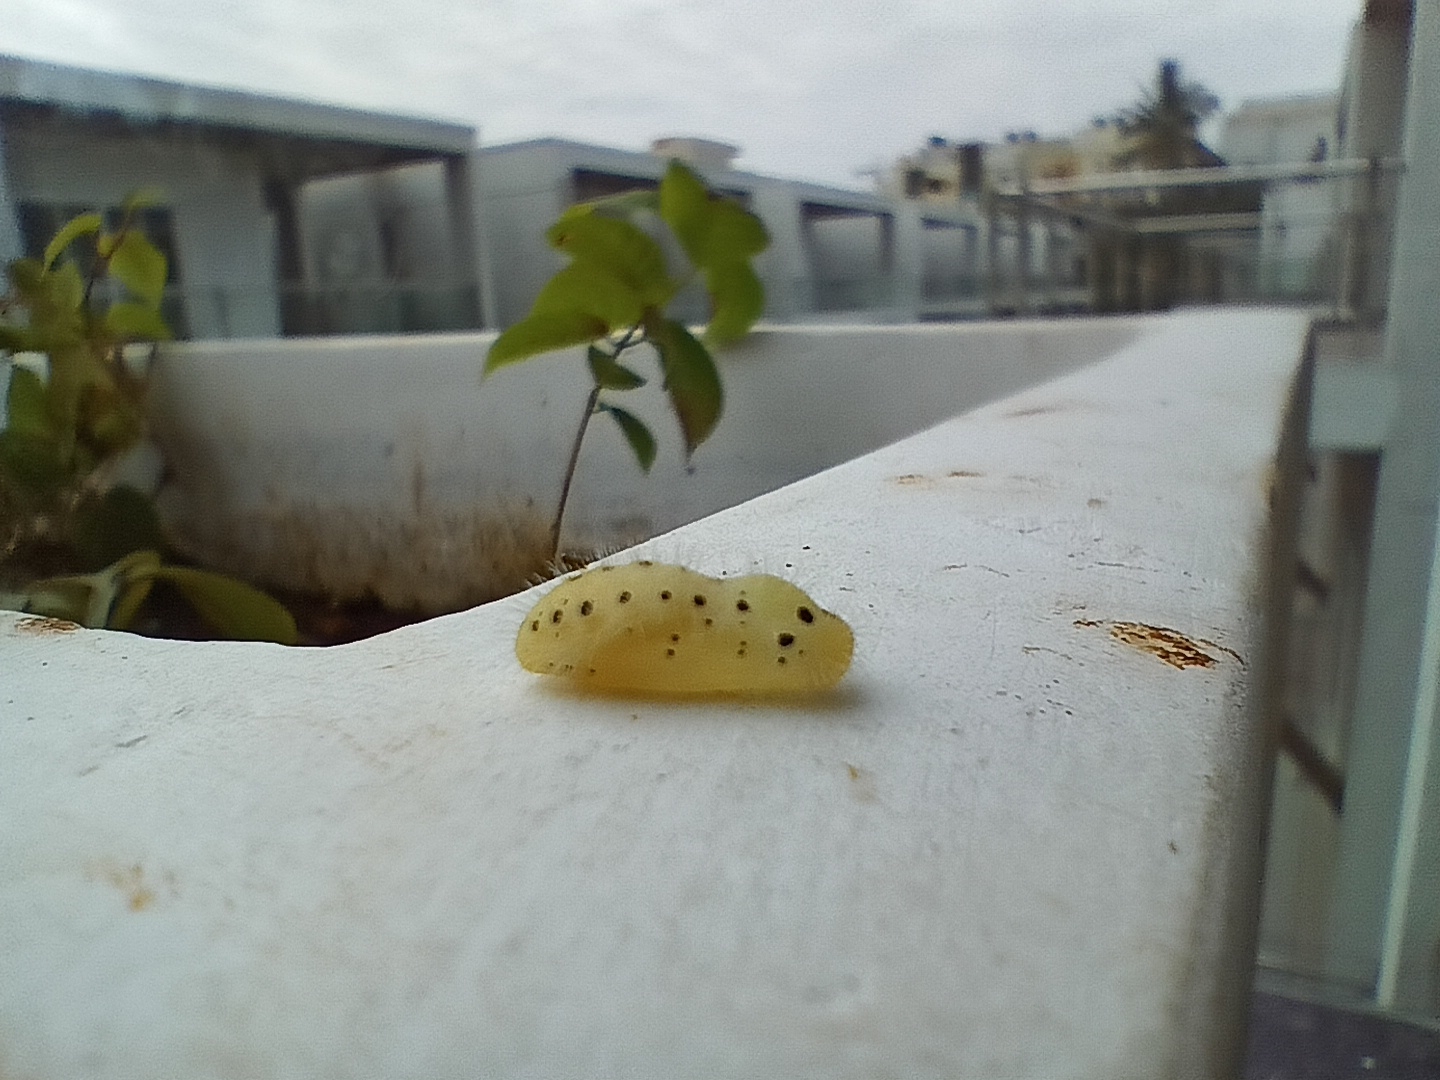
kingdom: Animalia
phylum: Arthropoda
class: Insecta
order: Lepidoptera
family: Lycaenidae
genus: Talicada
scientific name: Talicada nyseus
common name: Red pierrot
